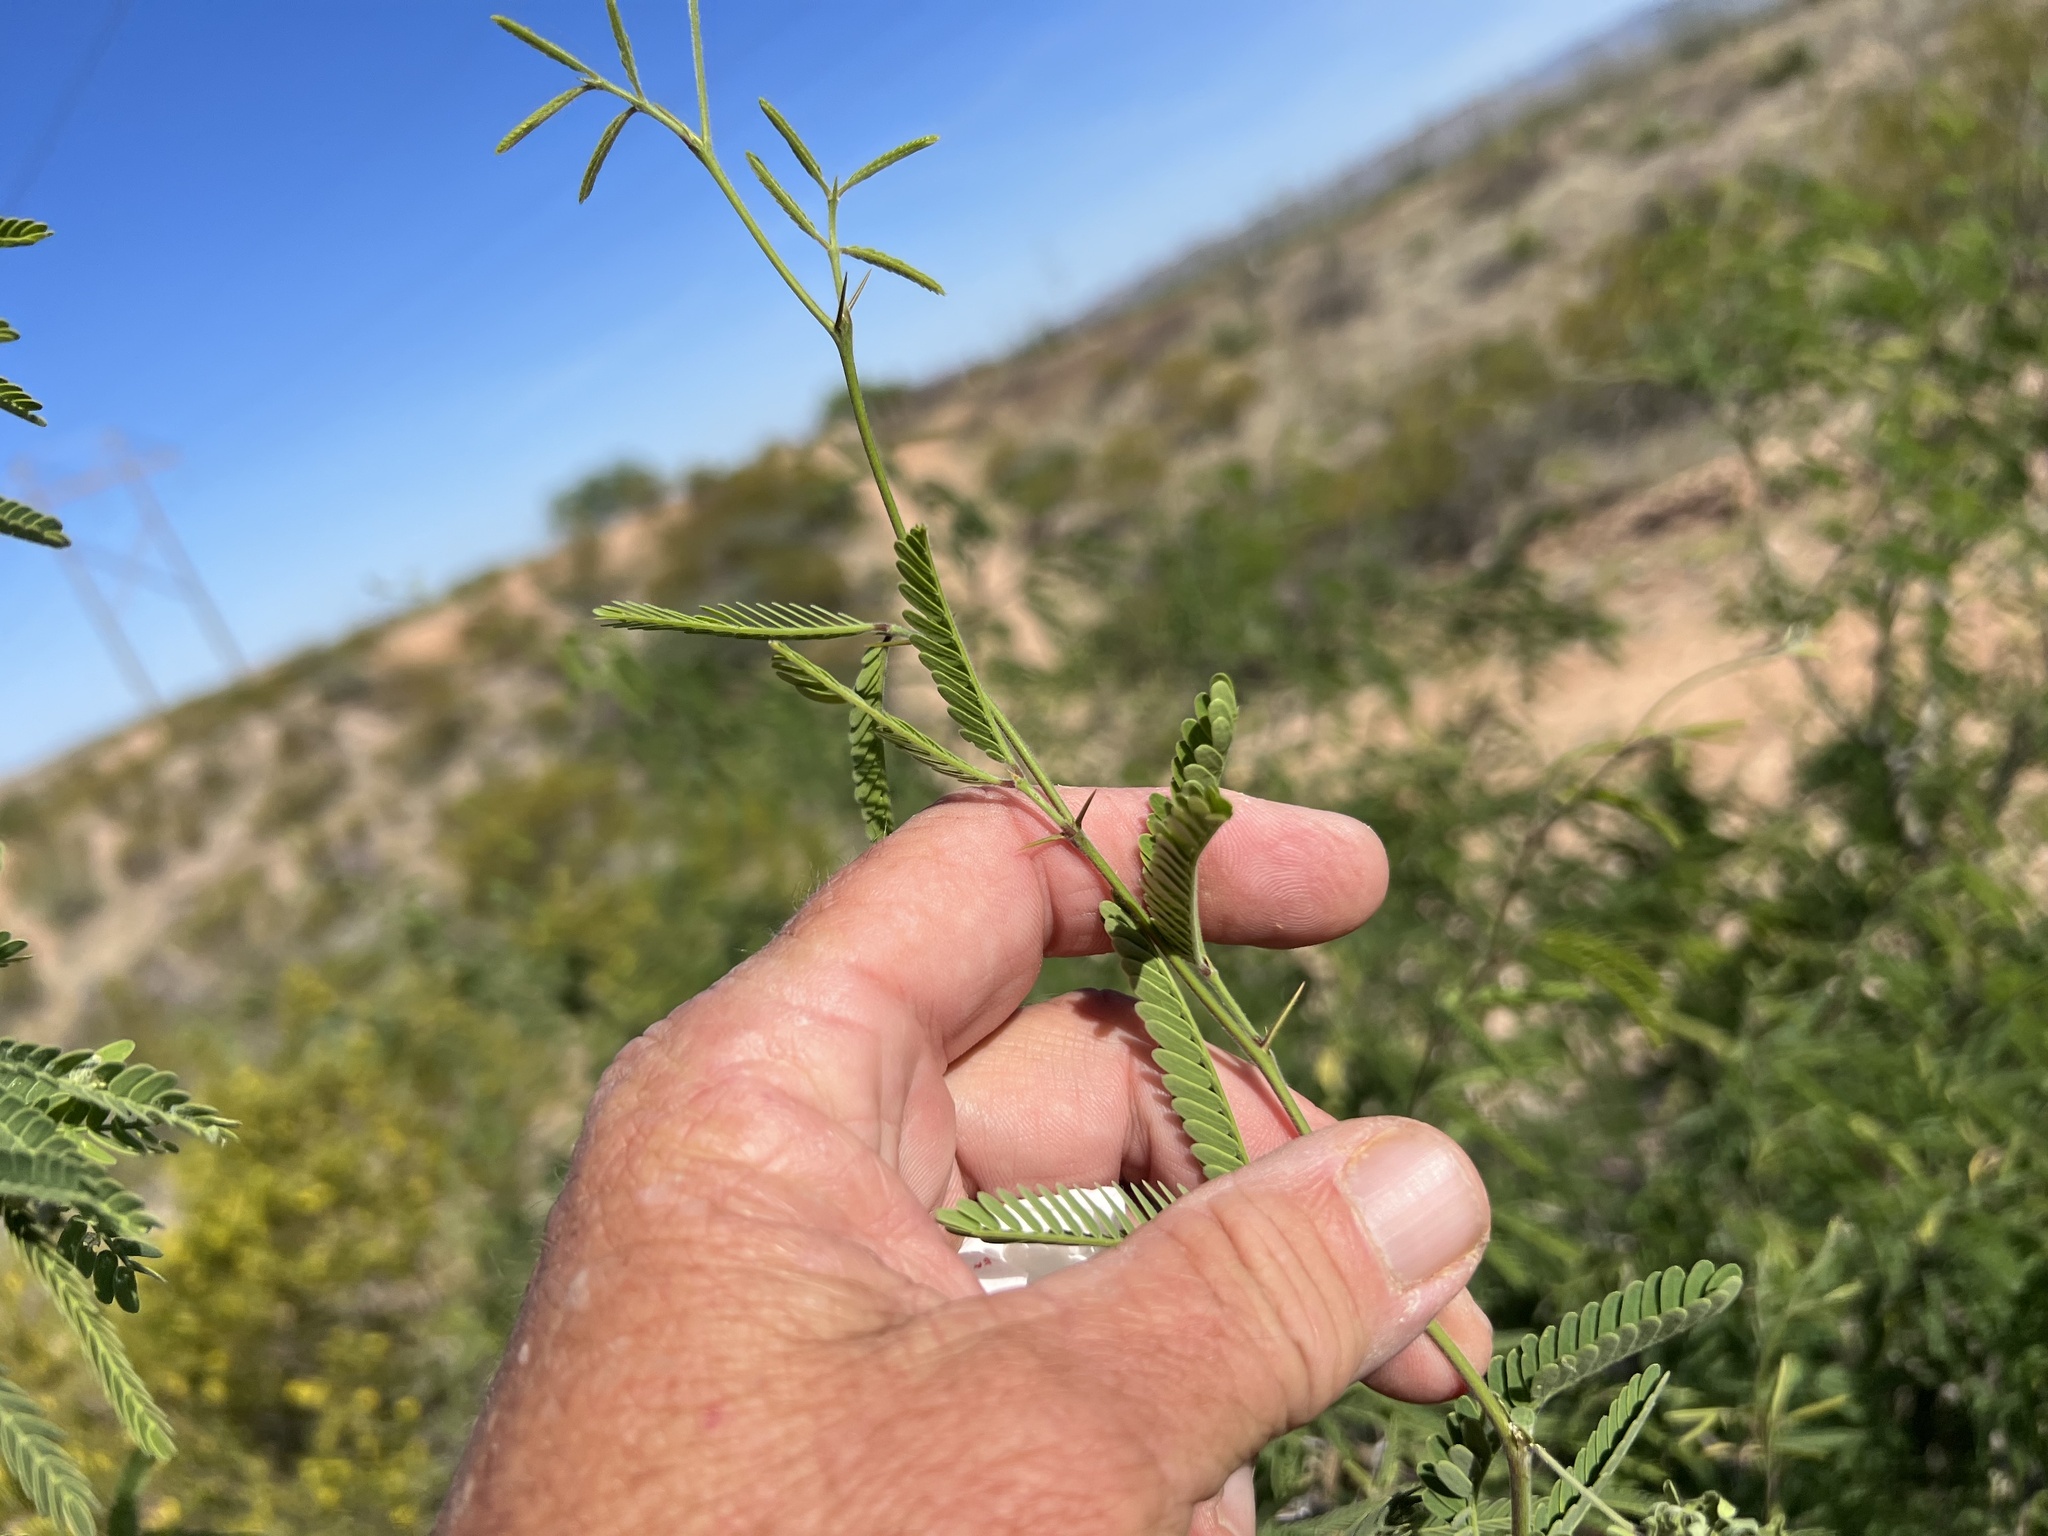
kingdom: Plantae
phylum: Tracheophyta
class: Magnoliopsida
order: Fabales
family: Fabaceae
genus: Prosopis
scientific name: Prosopis velutina
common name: Velvet mesquite
